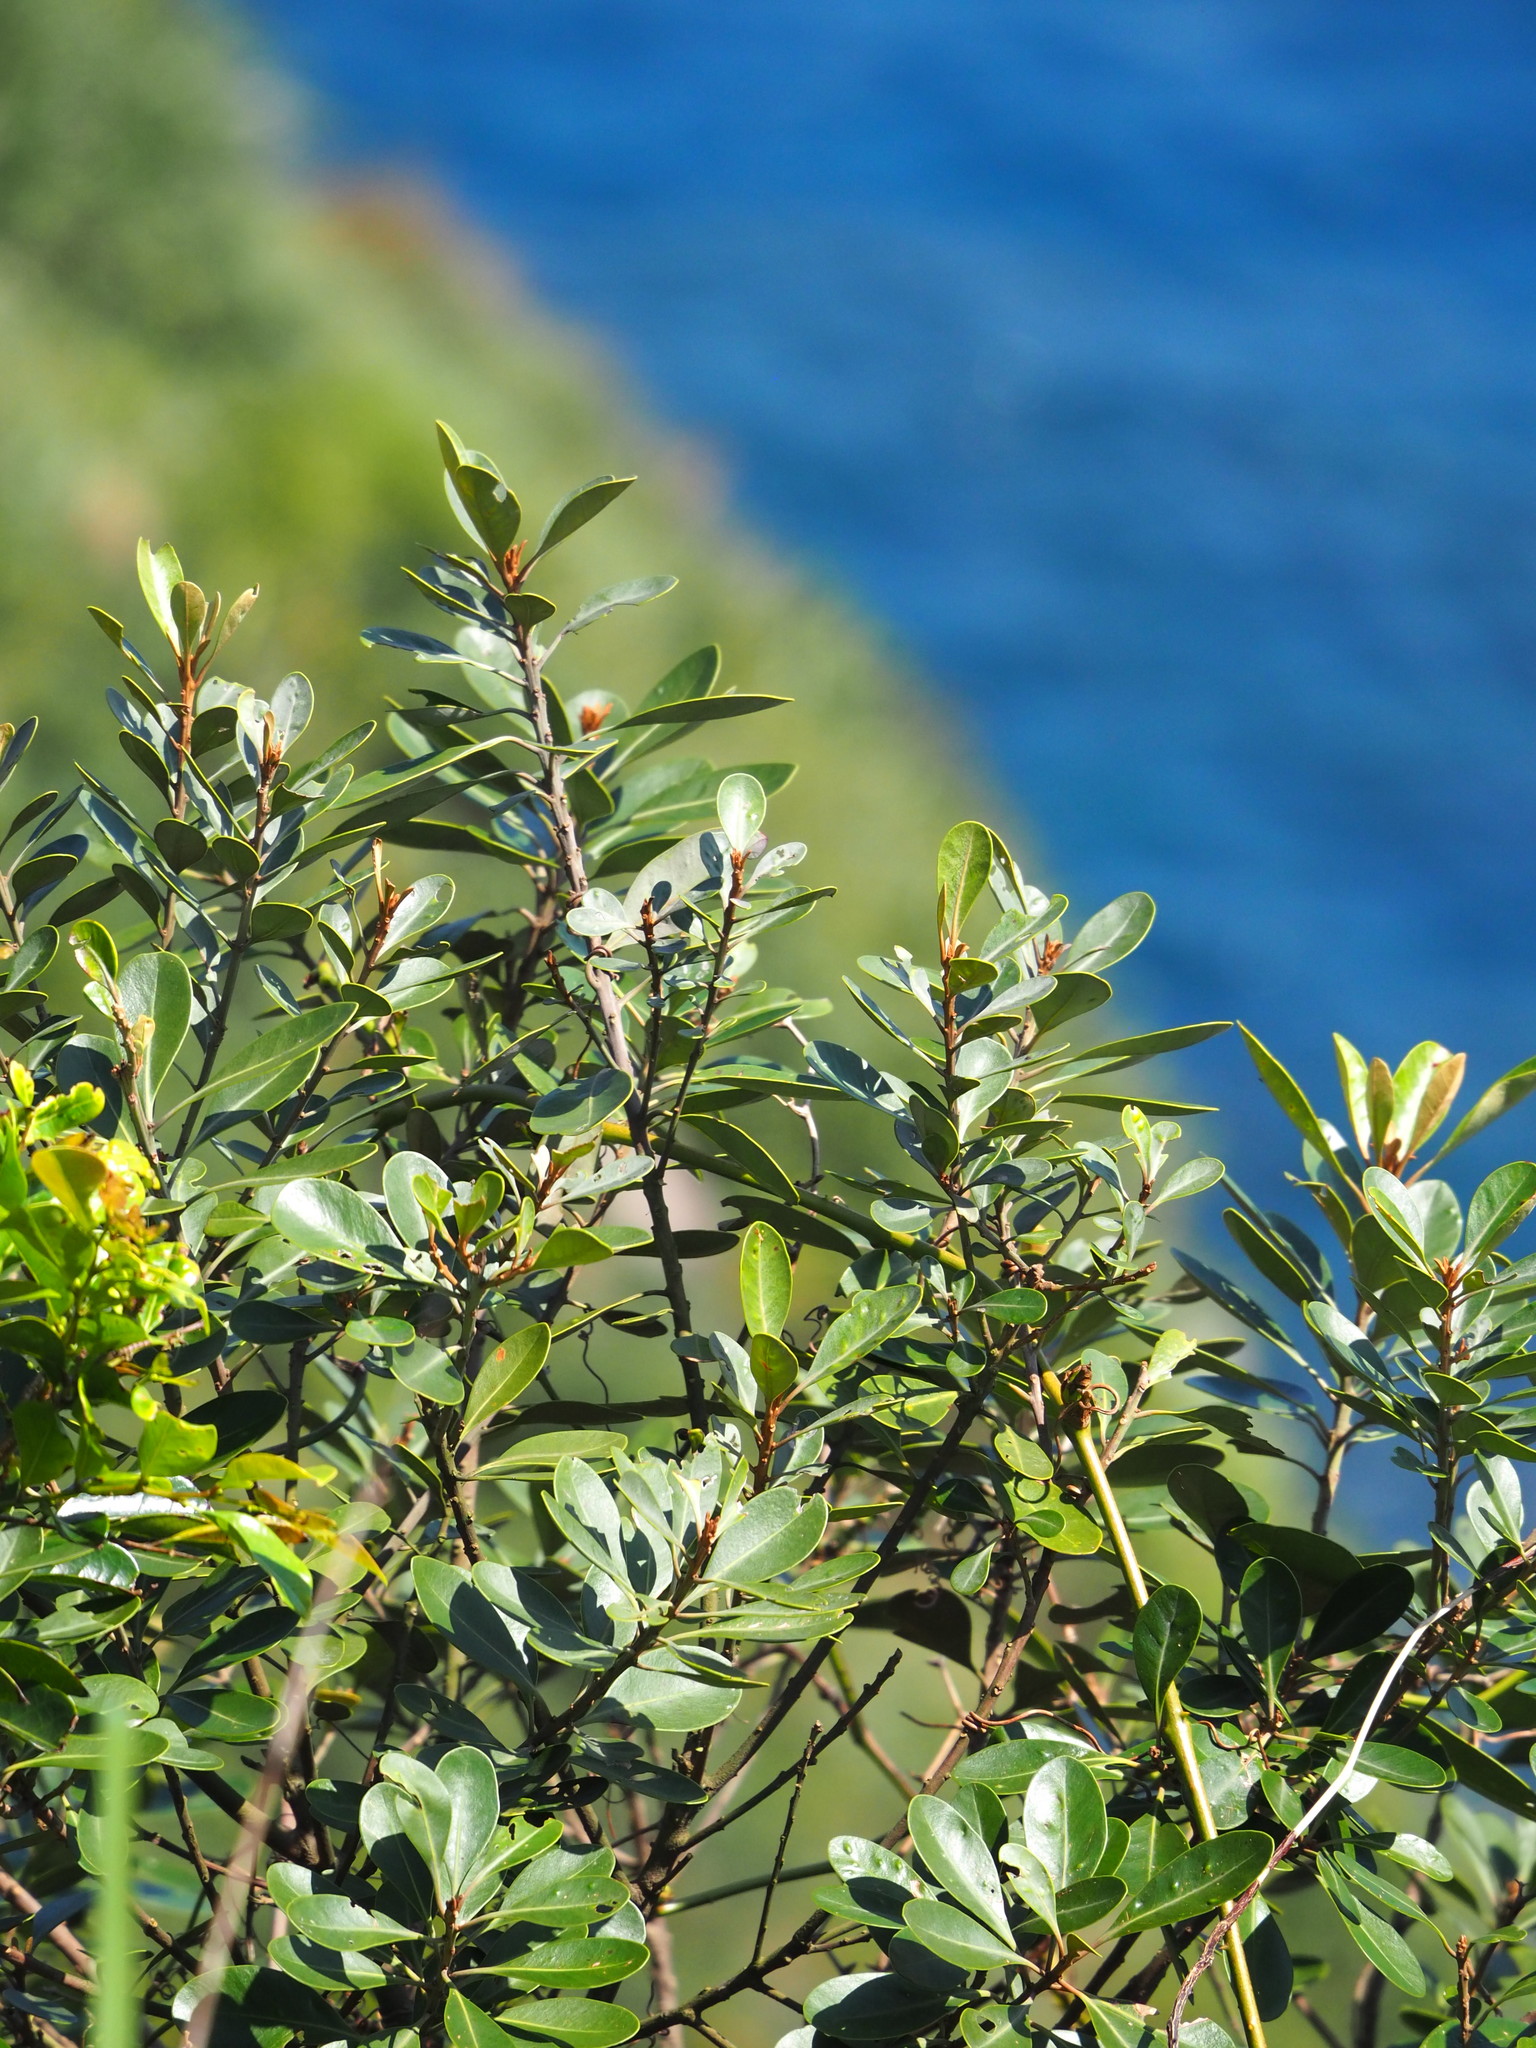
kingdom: Plantae
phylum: Tracheophyta
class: Magnoliopsida
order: Ericales
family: Sapotaceae
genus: Planchonella
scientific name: Planchonella obovata
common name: Black-ash
